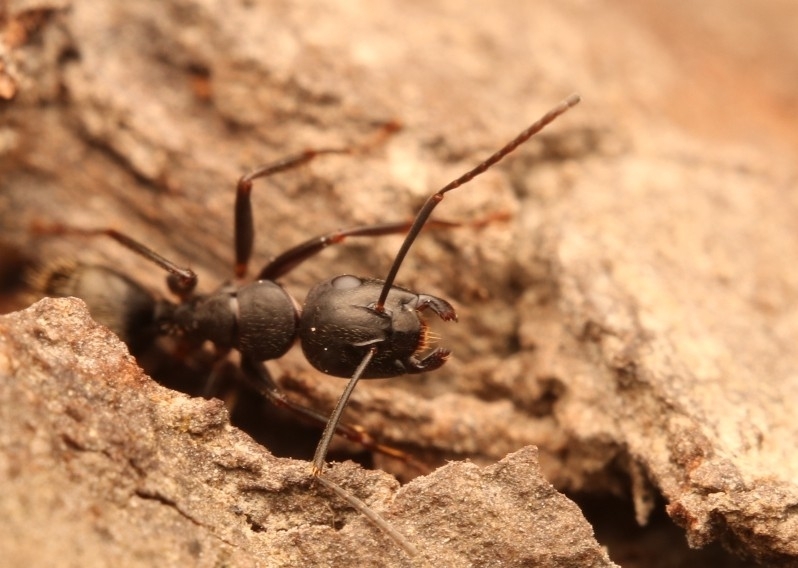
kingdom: Animalia
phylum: Arthropoda
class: Insecta
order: Hymenoptera
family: Formicidae
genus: Camponotus
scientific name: Camponotus pennsylvanicus
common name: Black carpenter ant
